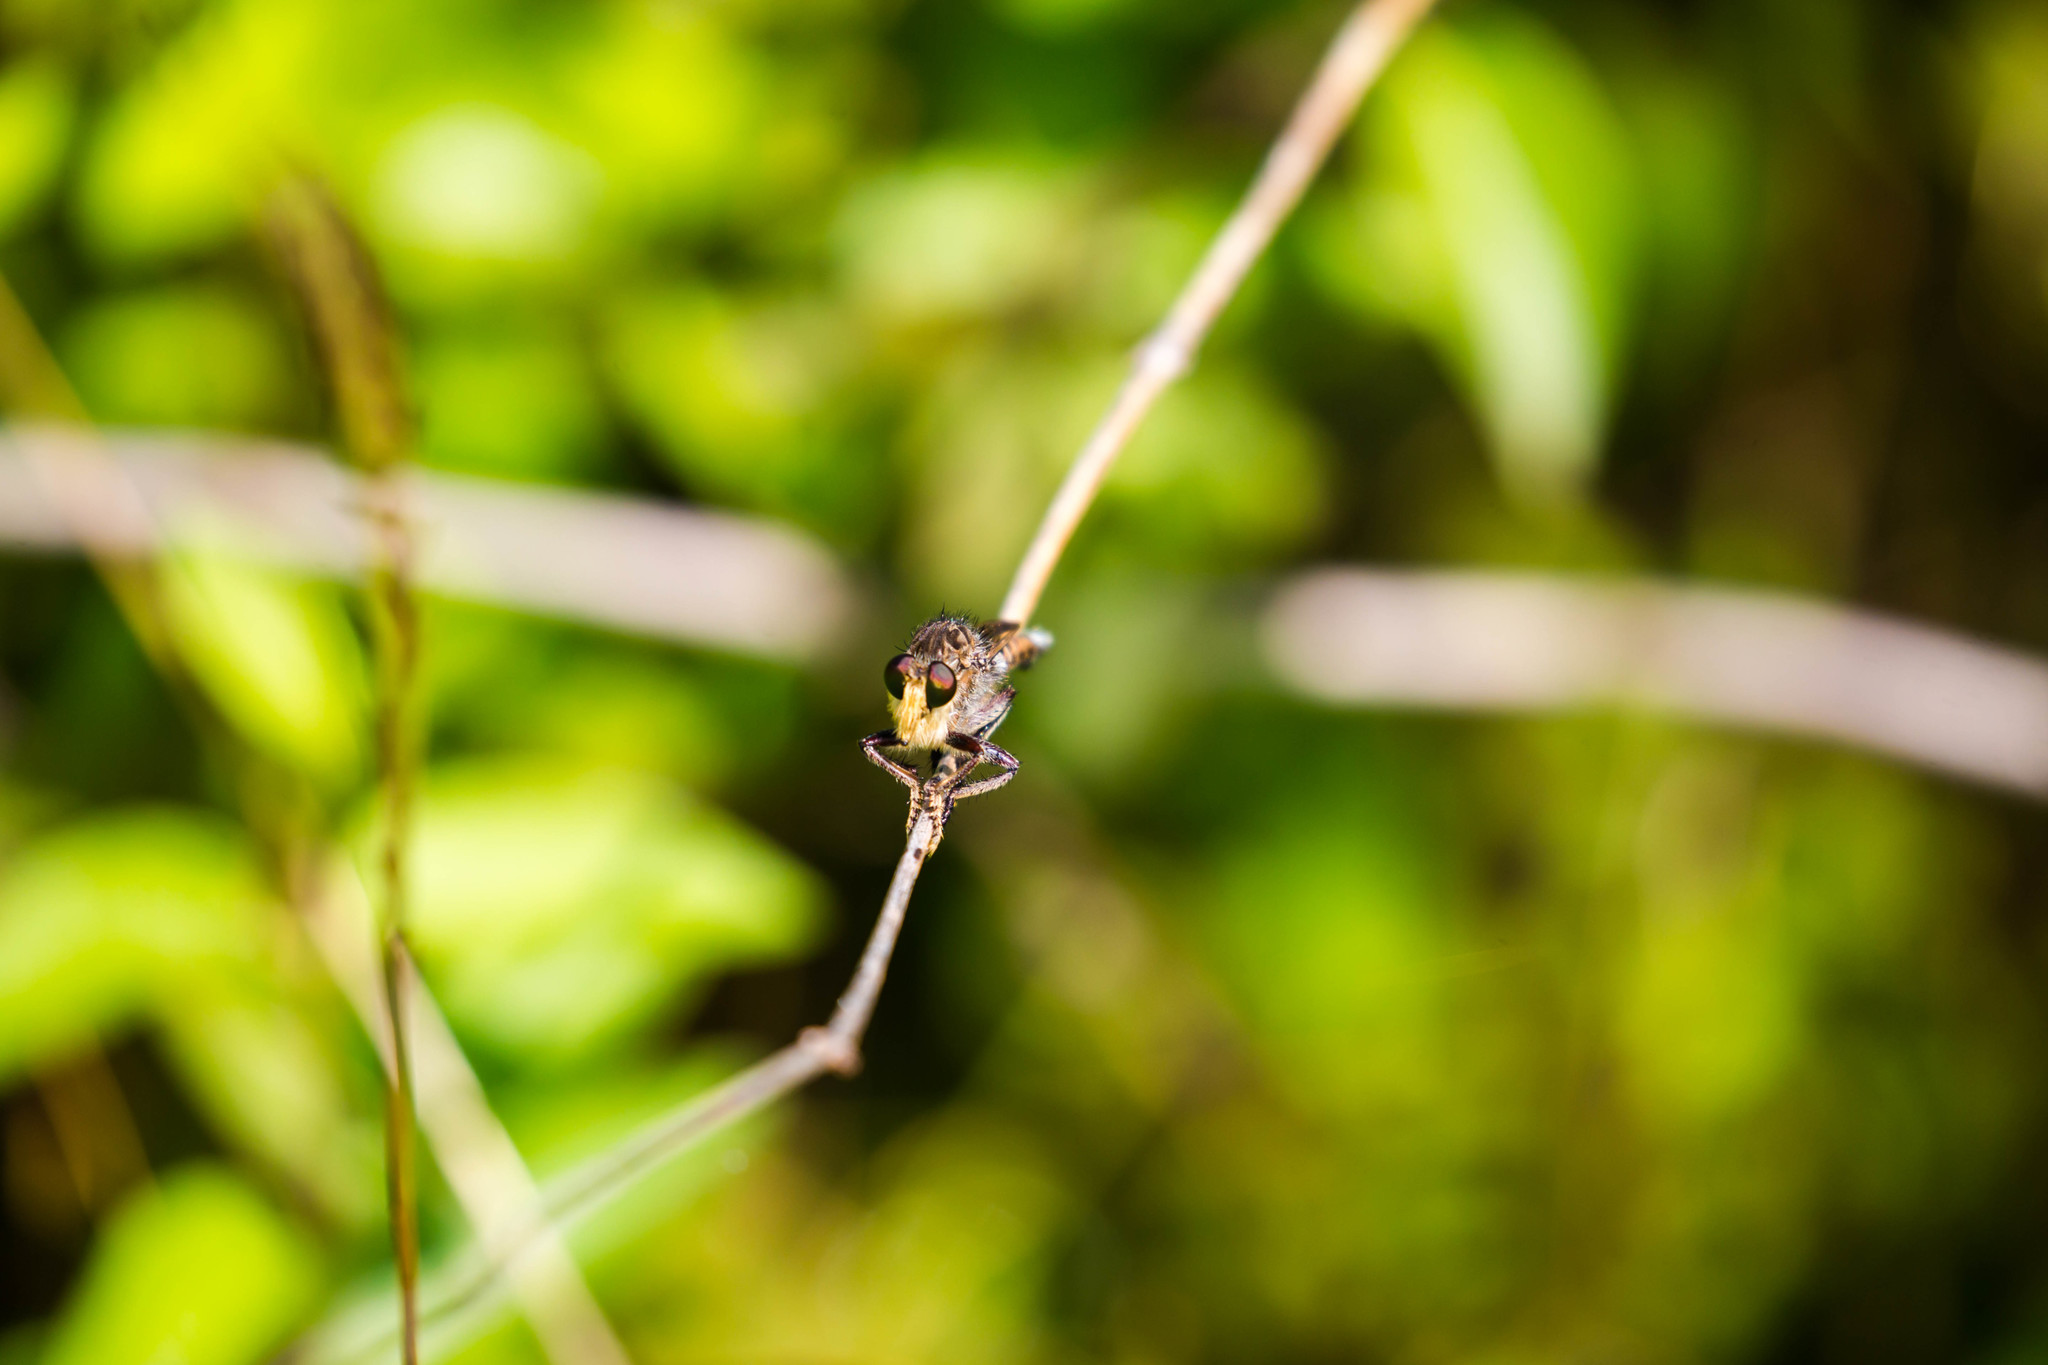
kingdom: Animalia
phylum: Arthropoda
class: Insecta
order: Diptera
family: Asilidae
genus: Promachus
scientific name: Promachus bastardii
